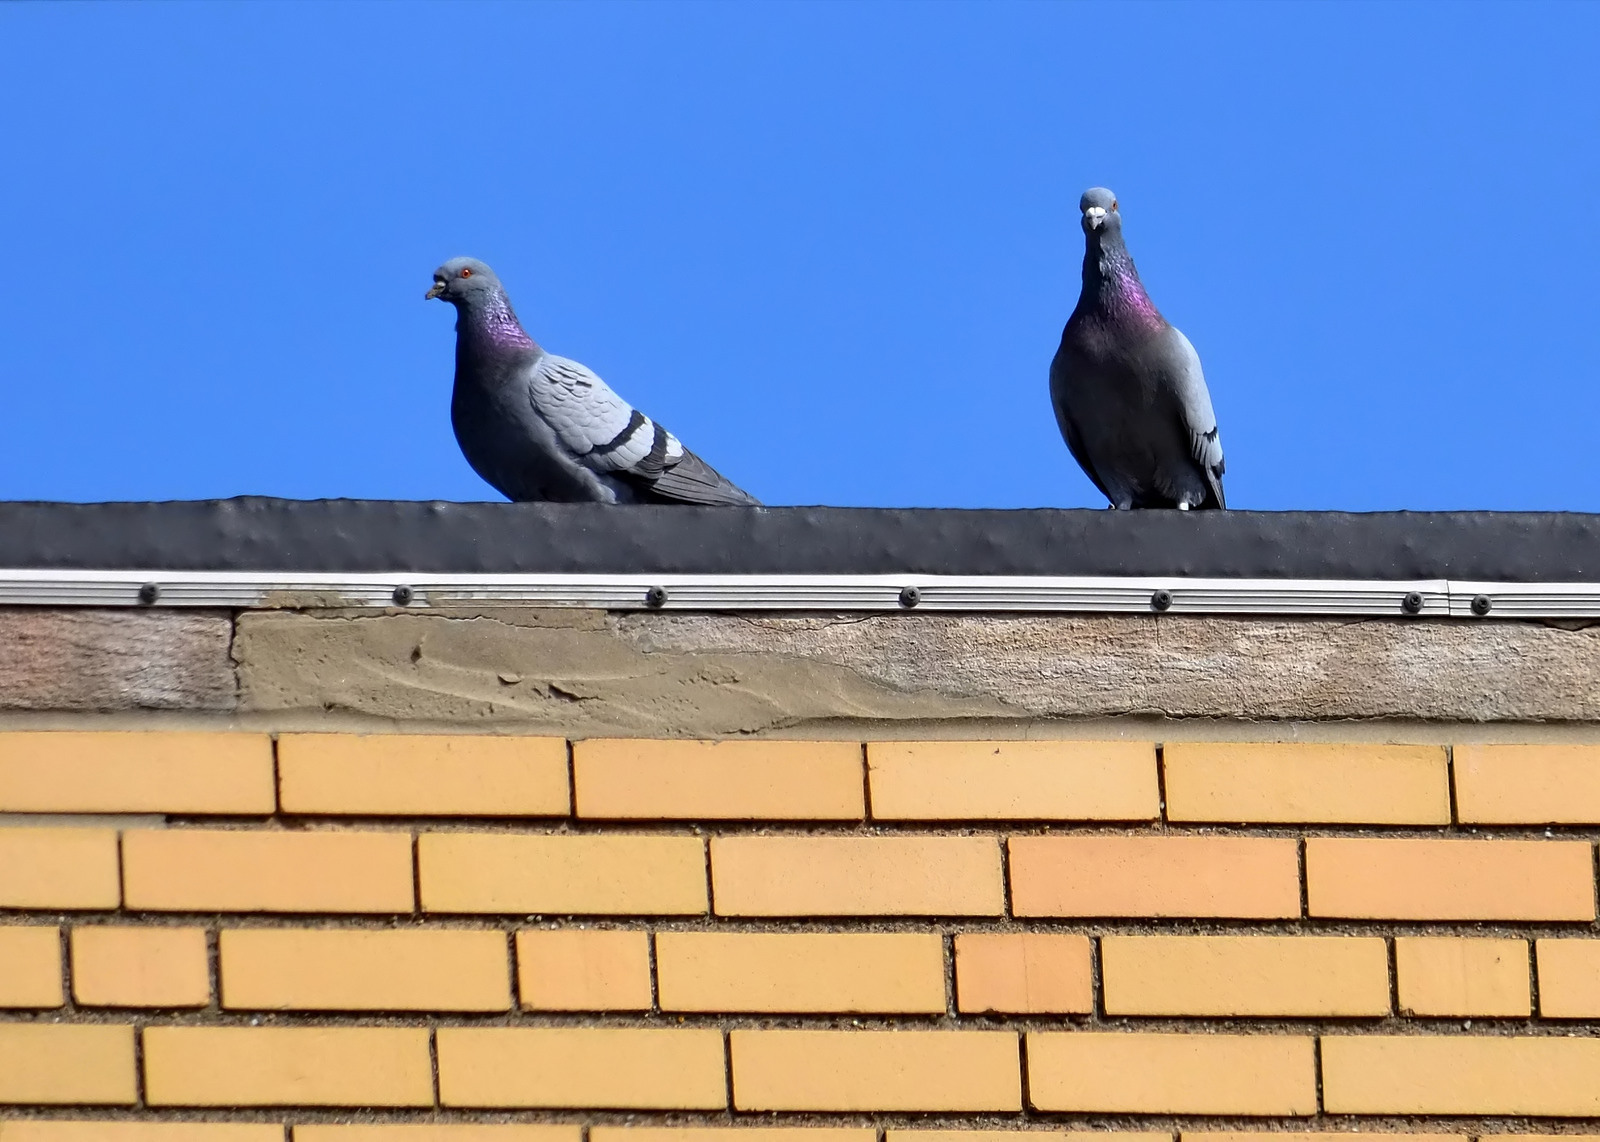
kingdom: Animalia
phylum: Chordata
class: Aves
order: Columbiformes
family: Columbidae
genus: Columba
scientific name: Columba livia
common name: Rock pigeon
